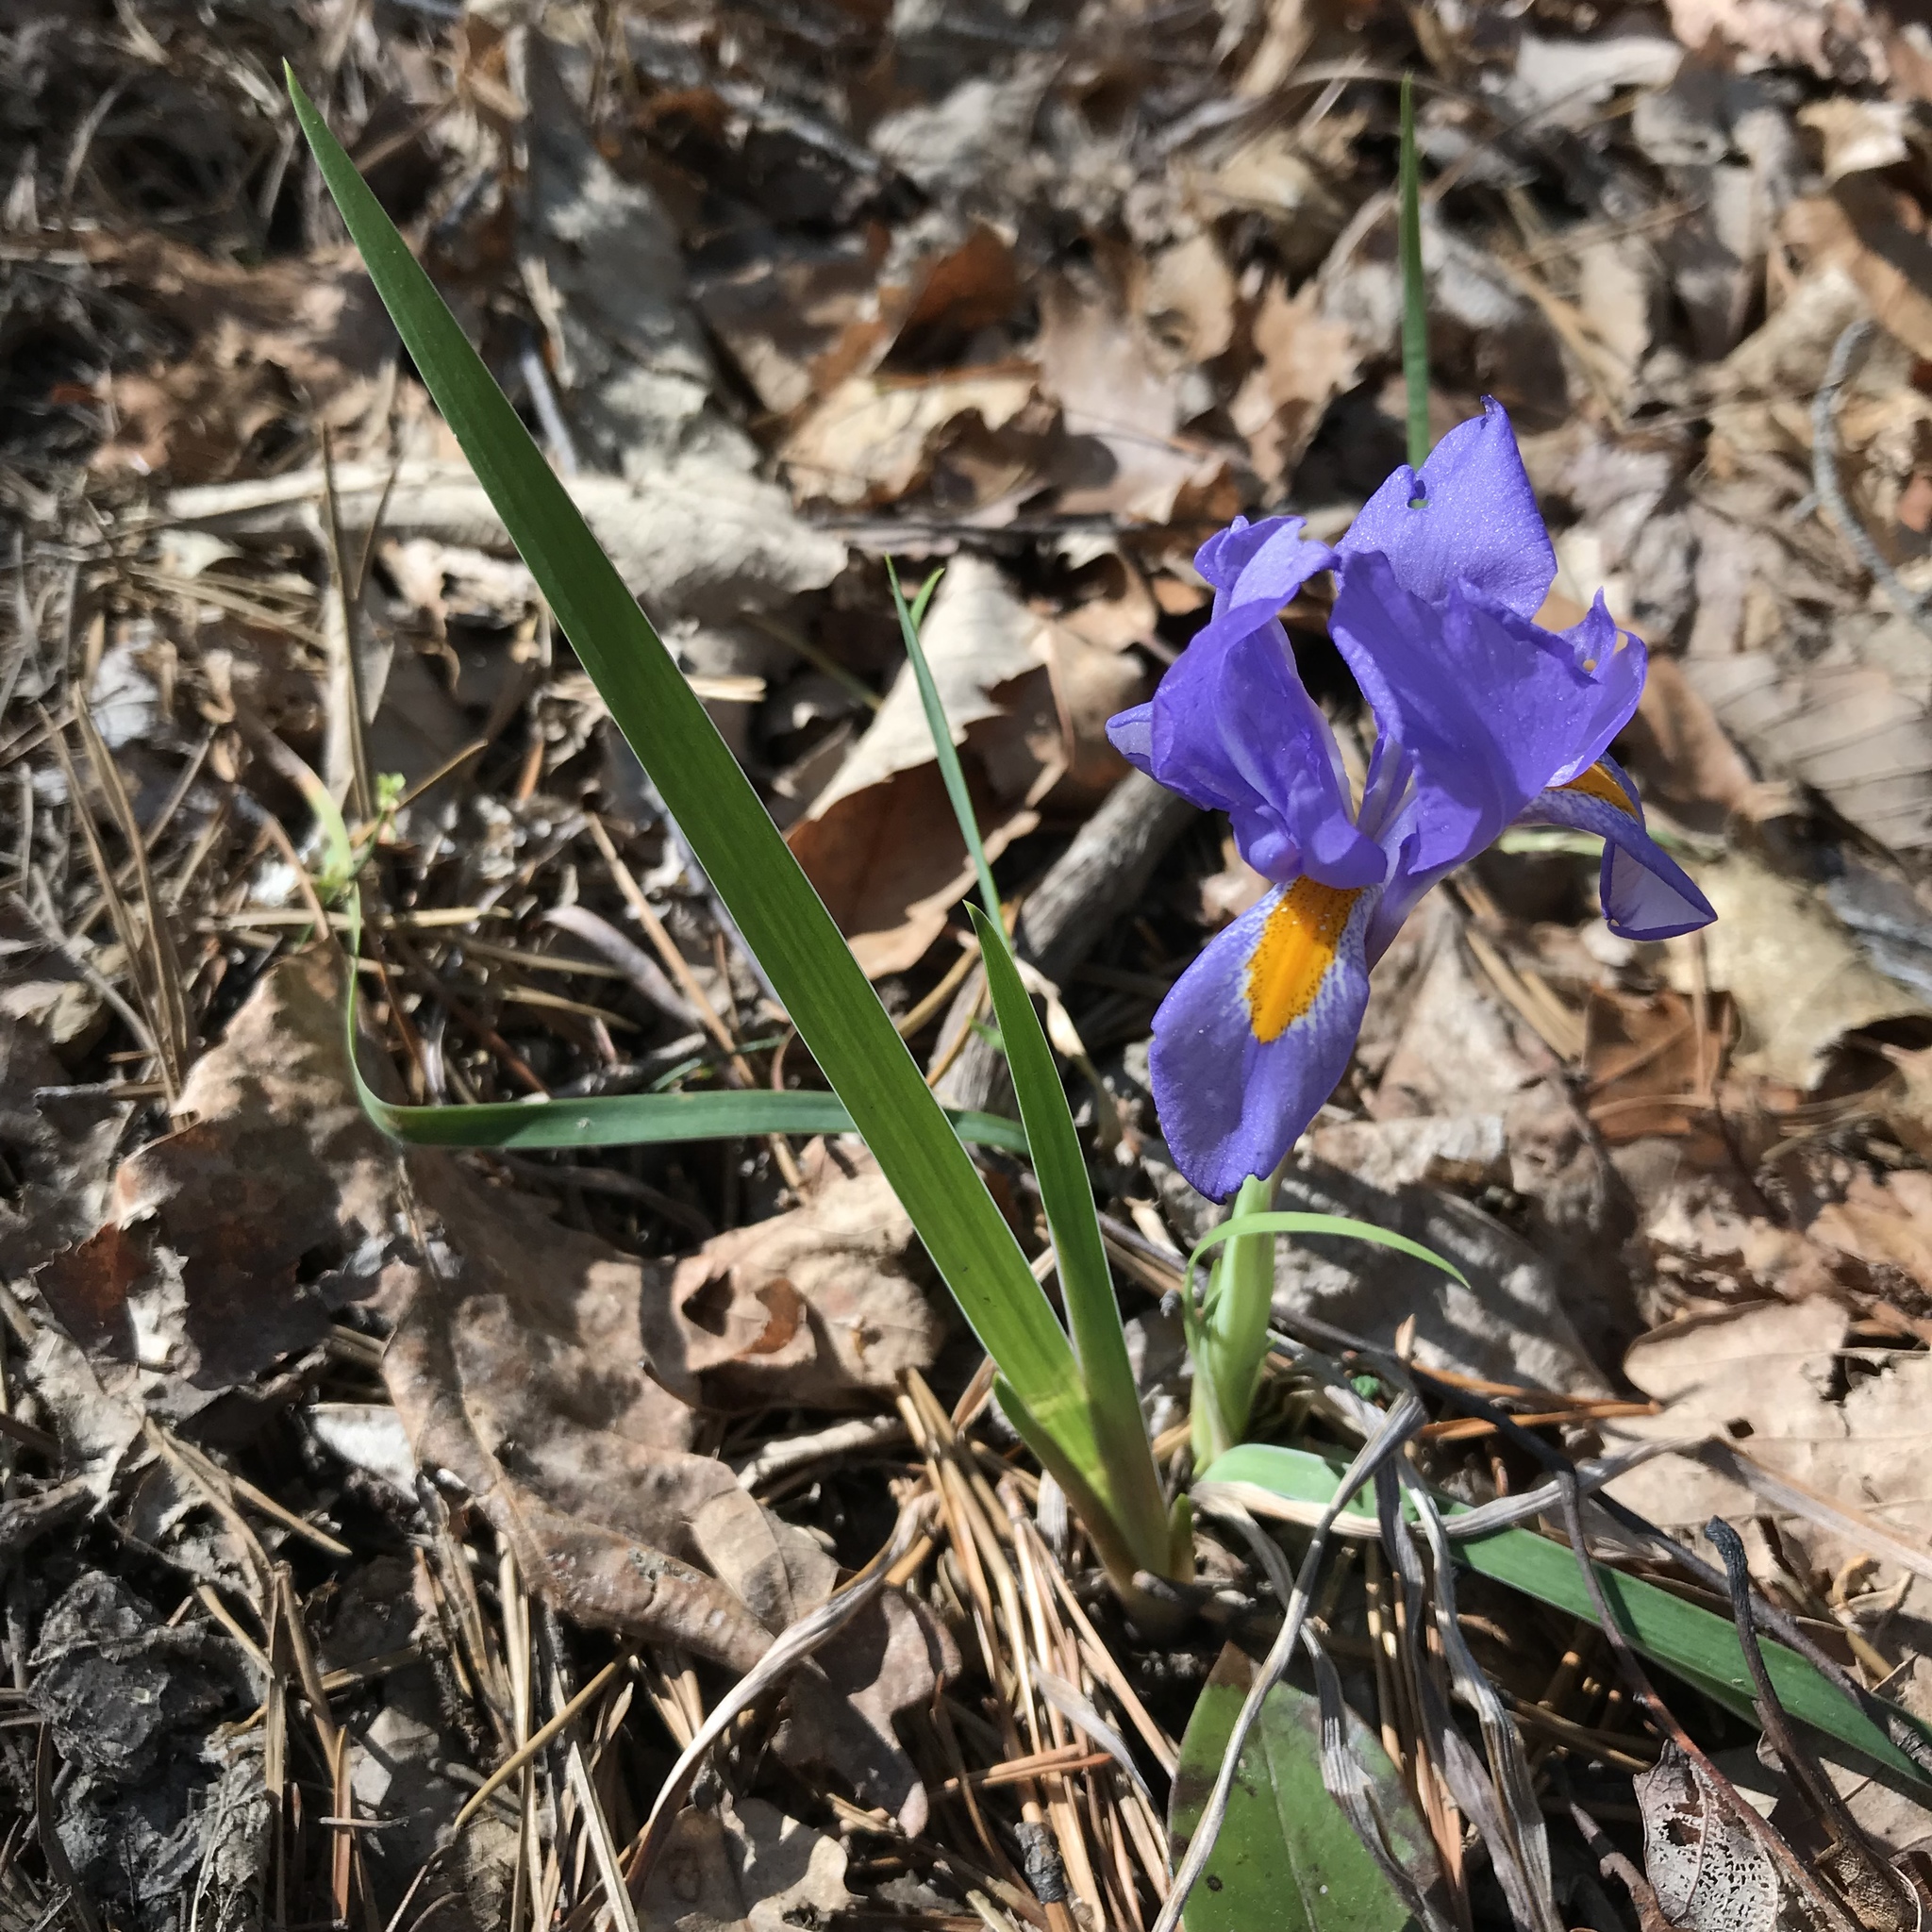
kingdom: Plantae
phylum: Tracheophyta
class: Liliopsida
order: Asparagales
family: Iridaceae
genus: Iris
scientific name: Iris verna
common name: Dwarf iris
